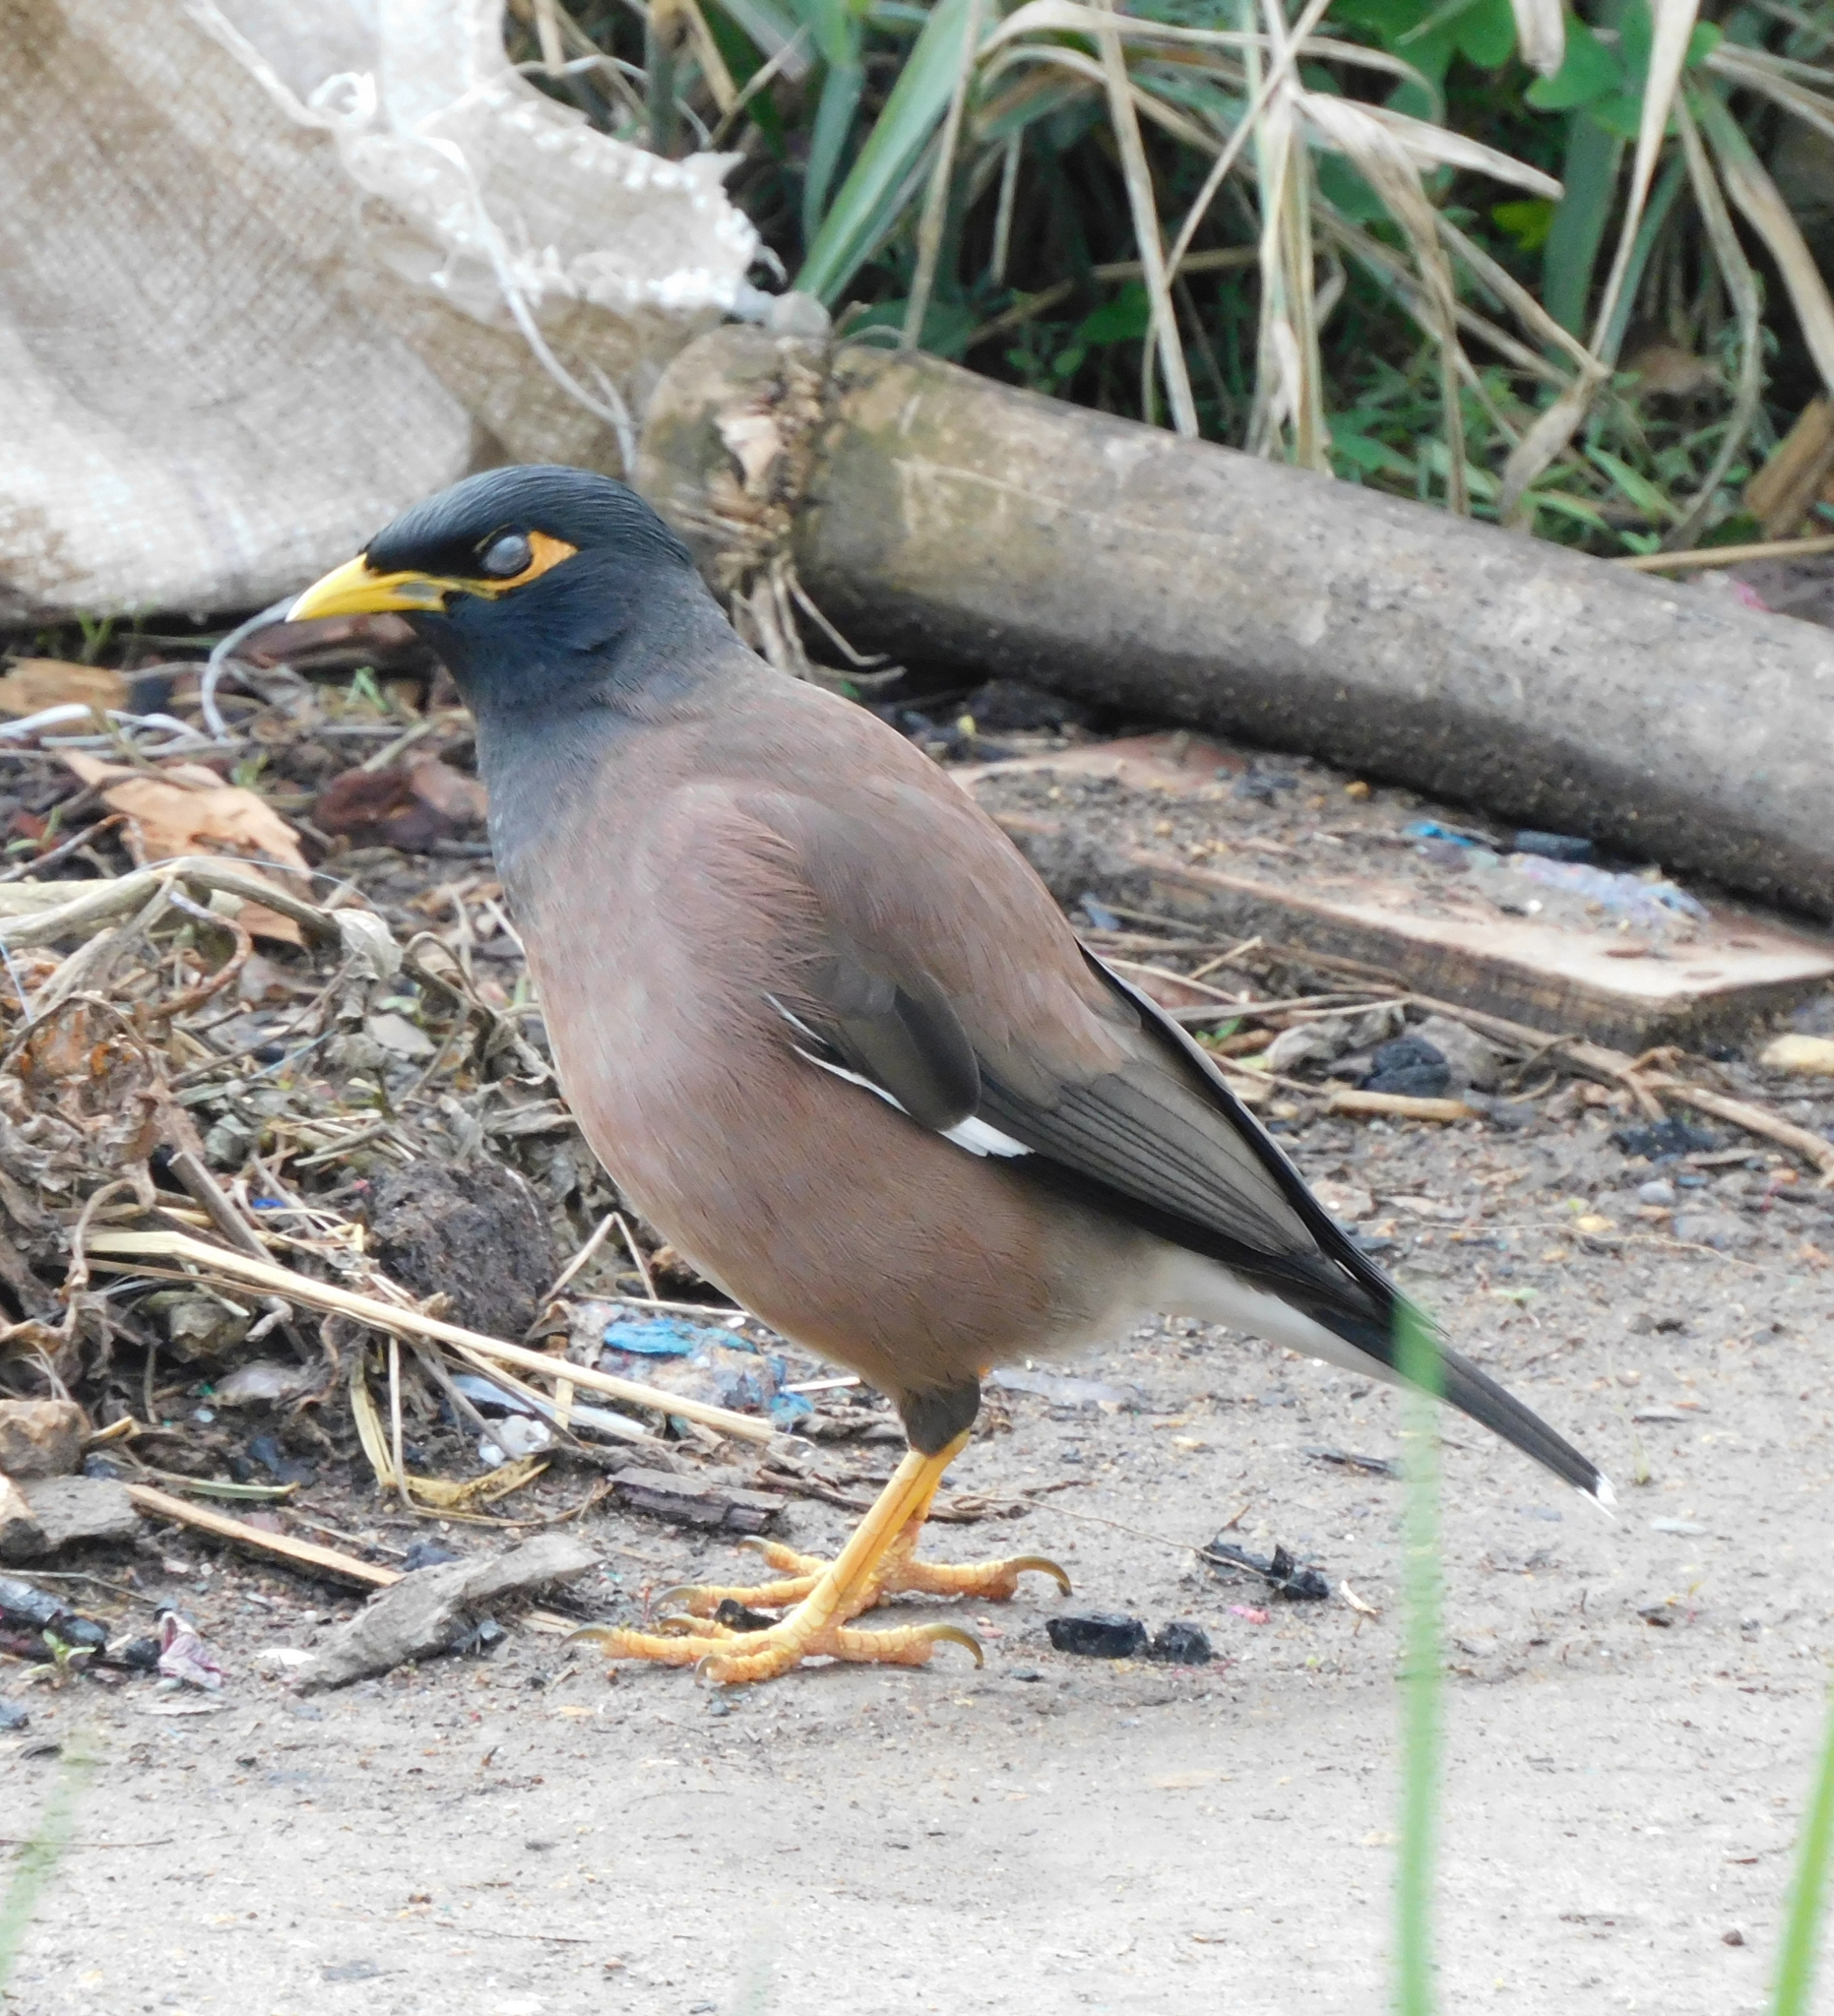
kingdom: Animalia
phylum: Chordata
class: Aves
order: Passeriformes
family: Sturnidae
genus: Acridotheres
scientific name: Acridotheres tristis
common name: Common myna
